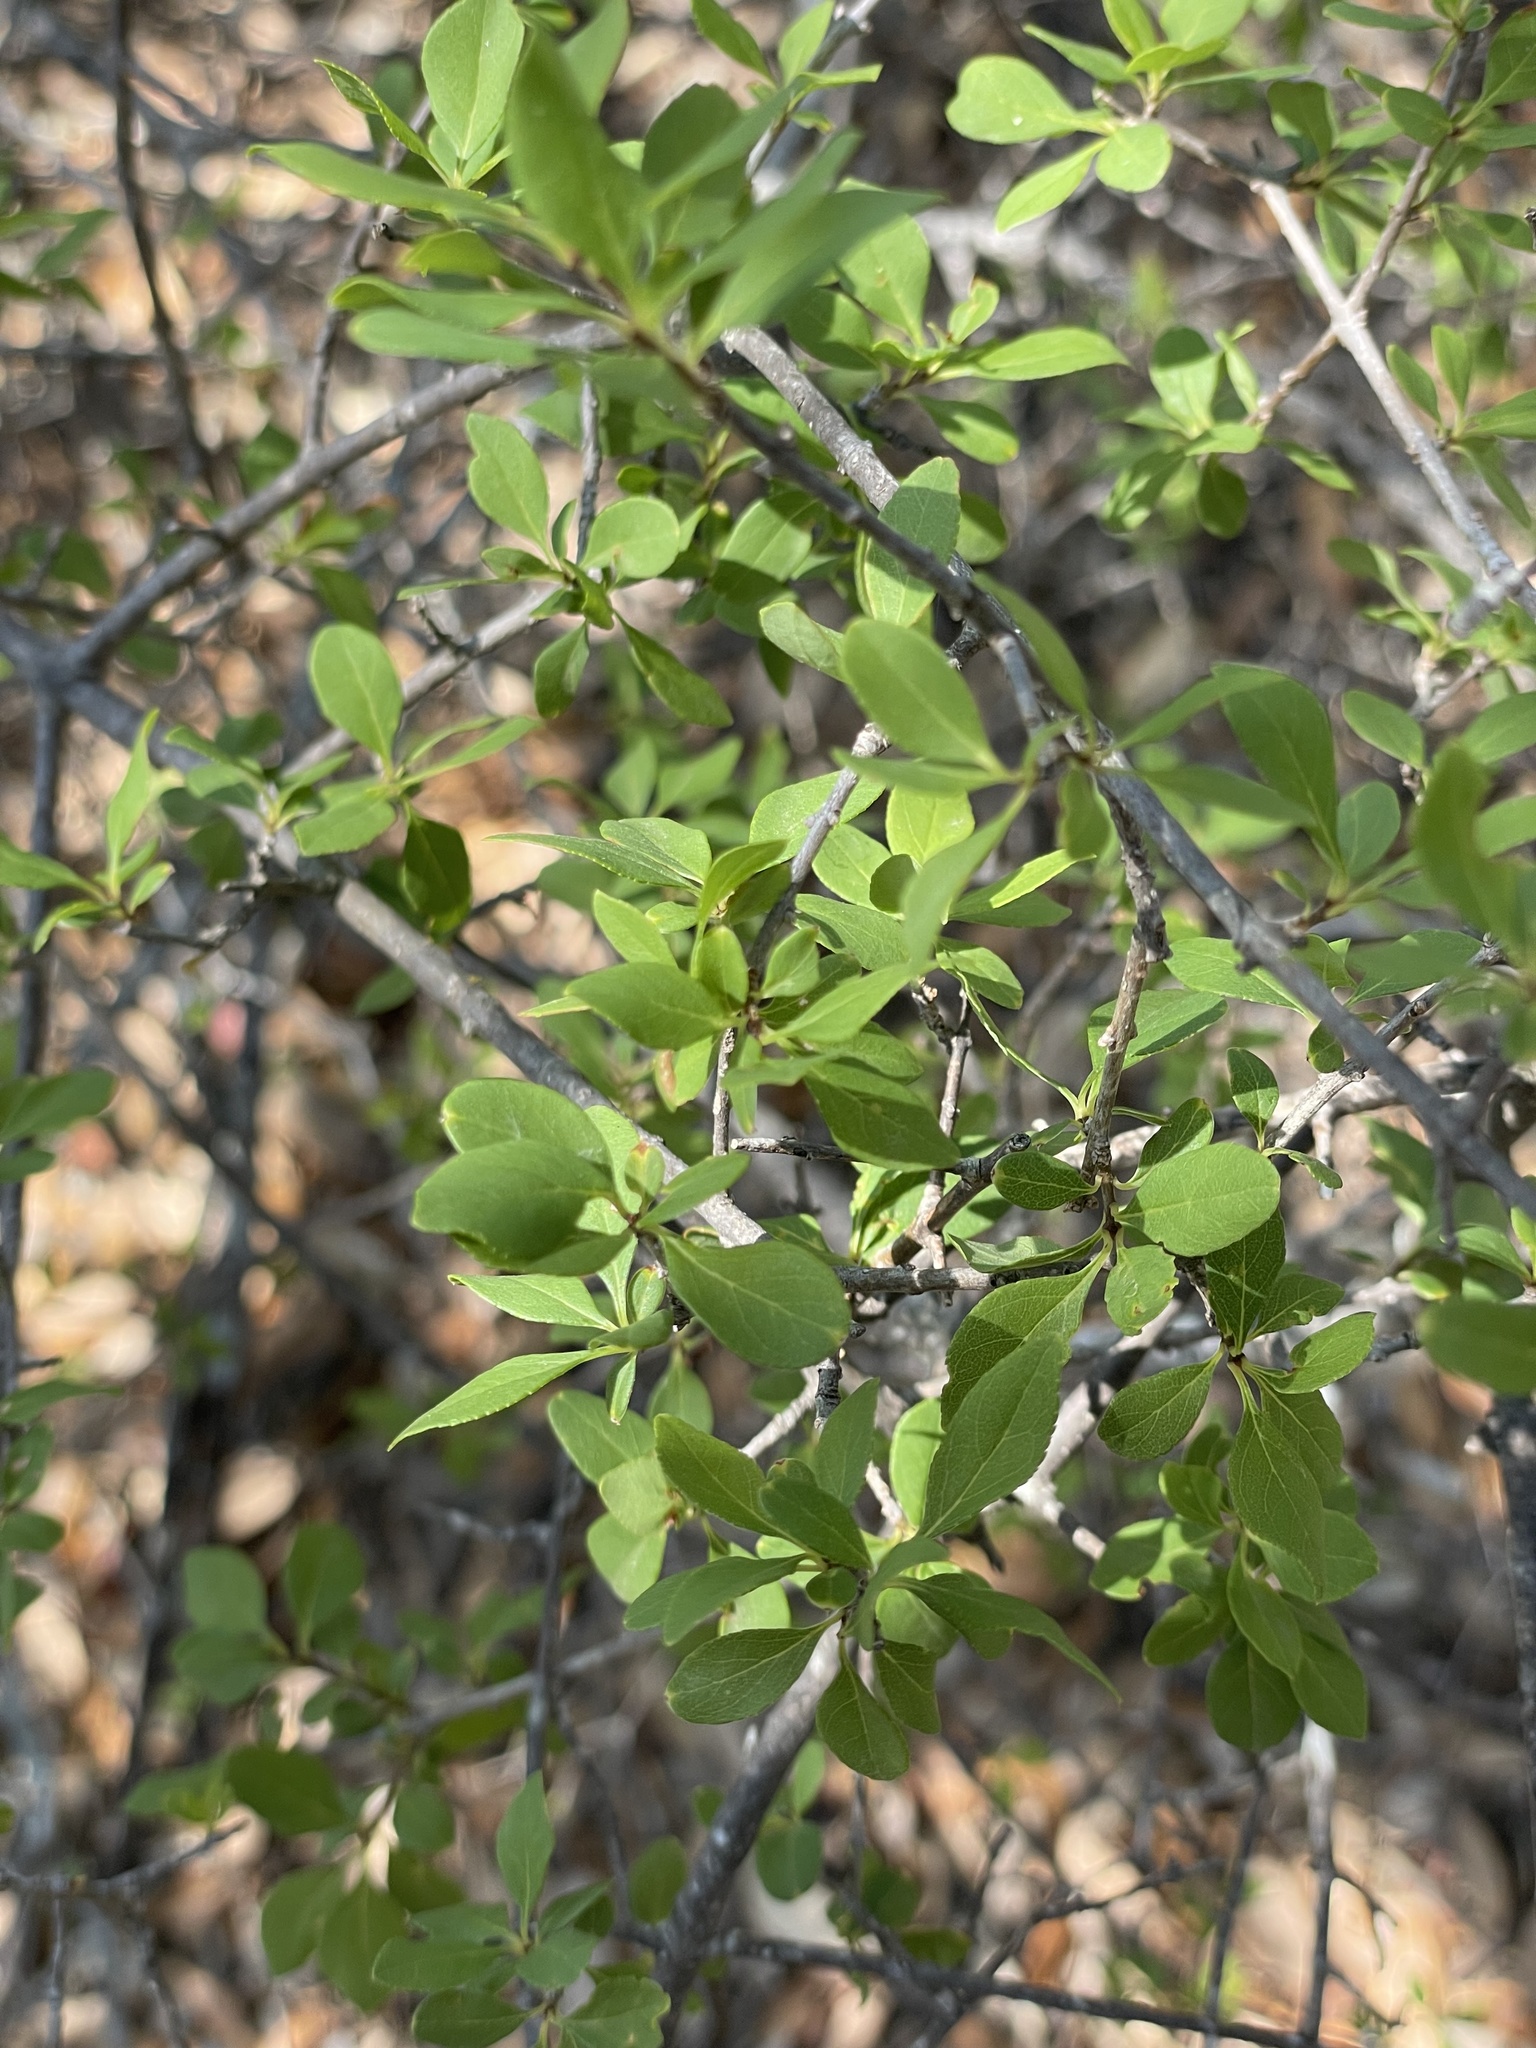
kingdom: Plantae
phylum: Tracheophyta
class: Magnoliopsida
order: Lamiales
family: Oleaceae
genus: Forestiera
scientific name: Forestiera pubescens
